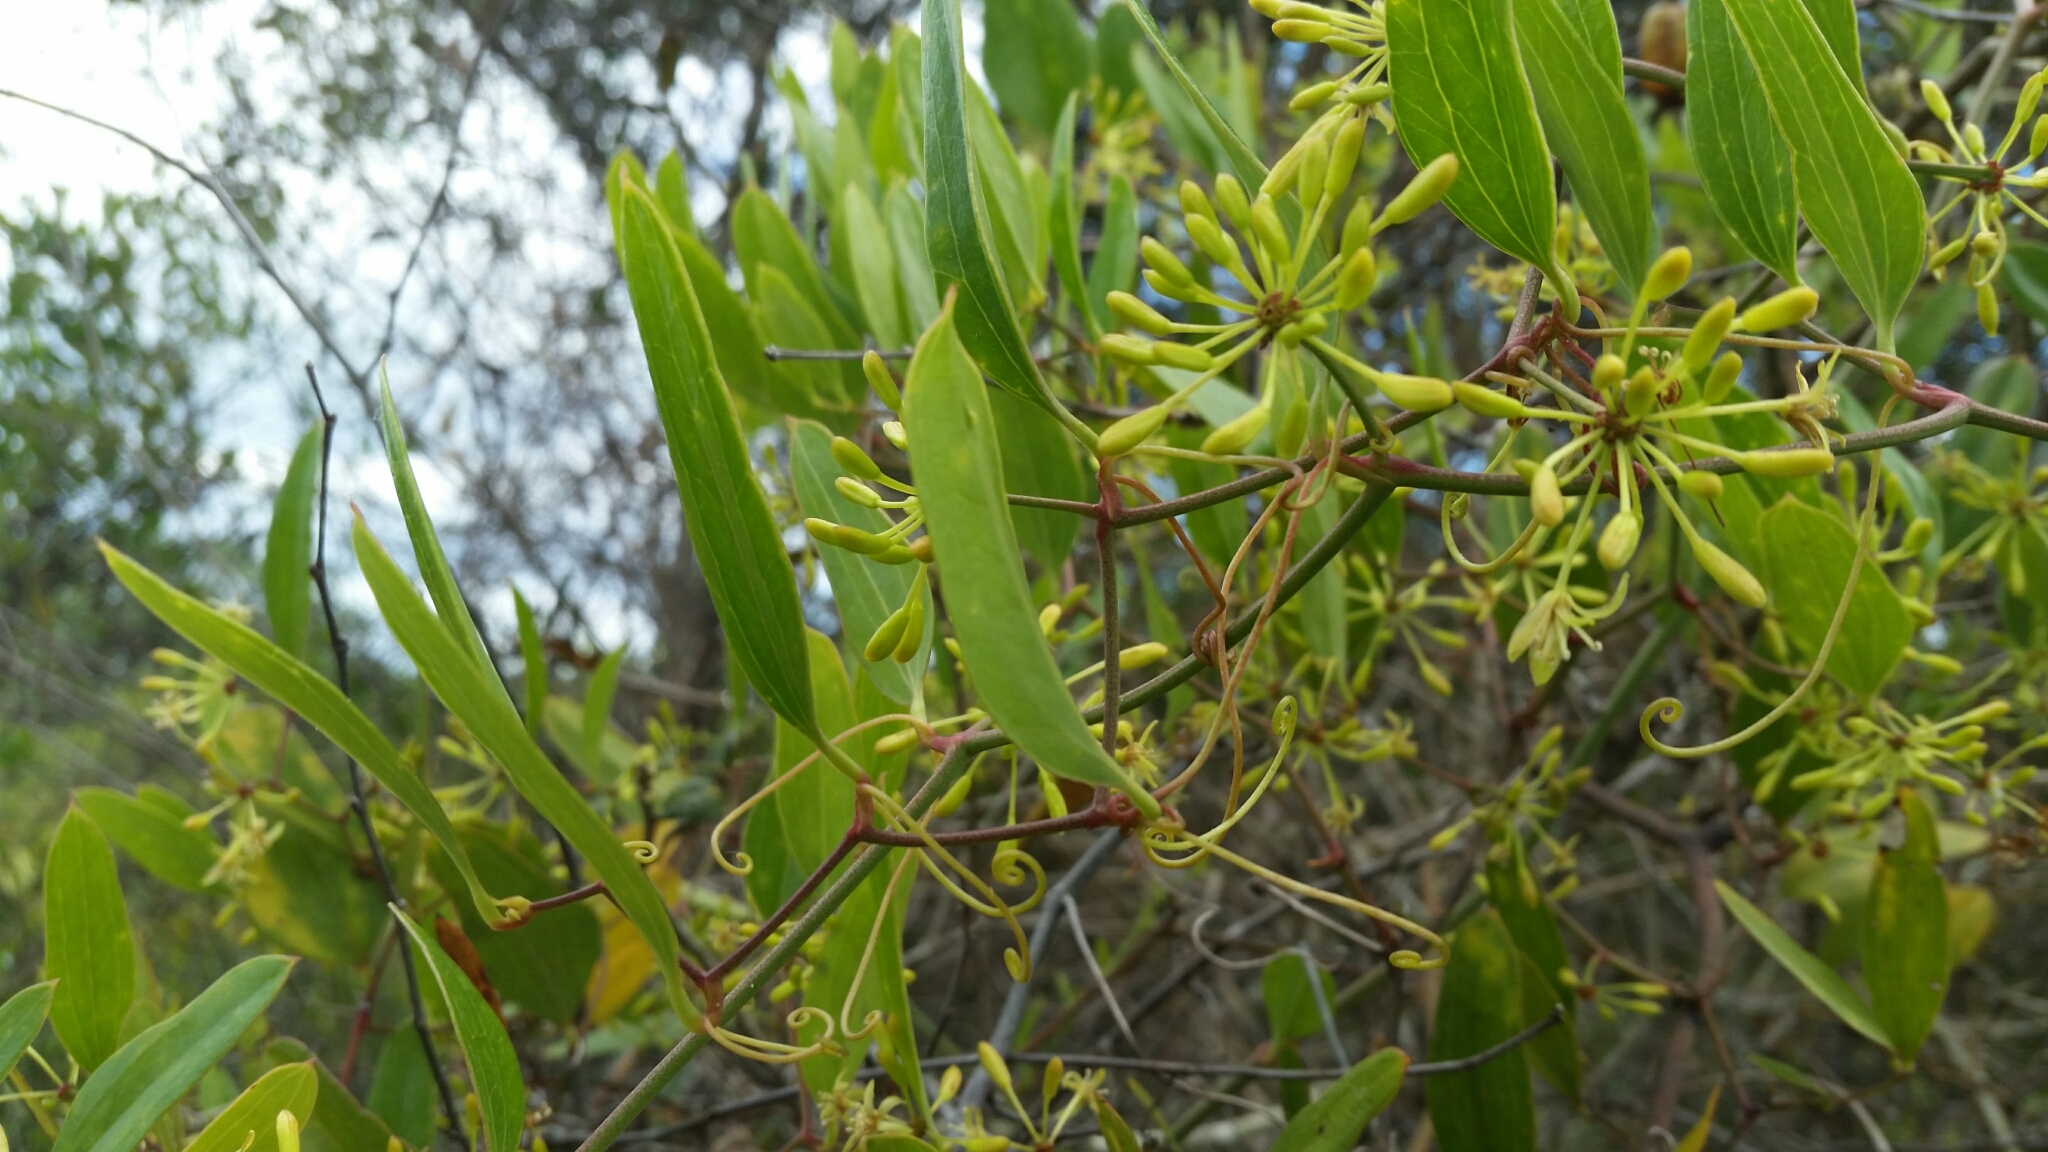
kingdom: Plantae
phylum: Tracheophyta
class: Liliopsida
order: Liliales
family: Smilacaceae
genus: Smilax
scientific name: Smilax auriculata
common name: Wild bamboo
